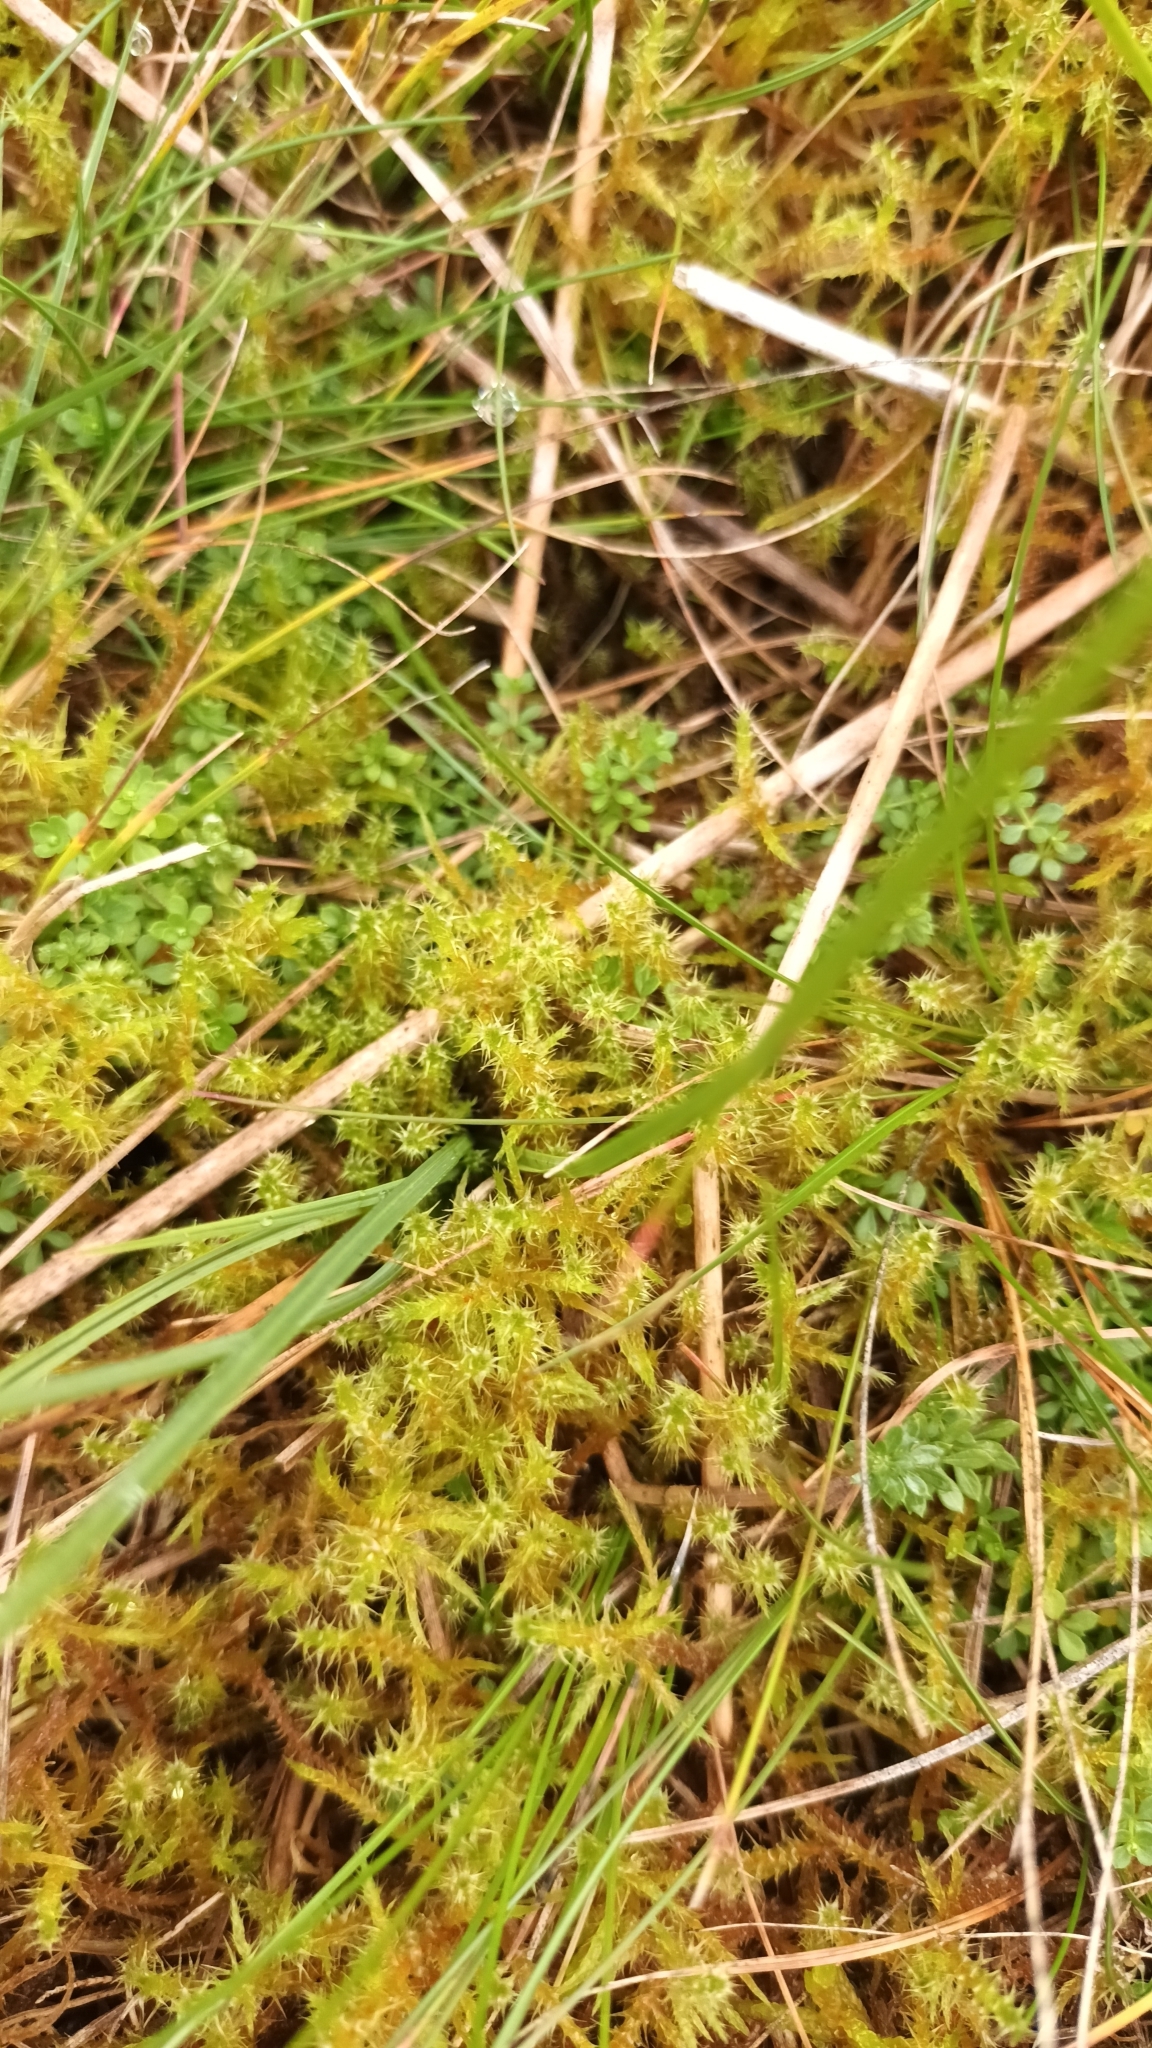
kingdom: Plantae
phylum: Bryophyta
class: Bryopsida
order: Hypnales
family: Hylocomiaceae
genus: Rhytidiadelphus
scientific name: Rhytidiadelphus squarrosus
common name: Springy turf-moss
